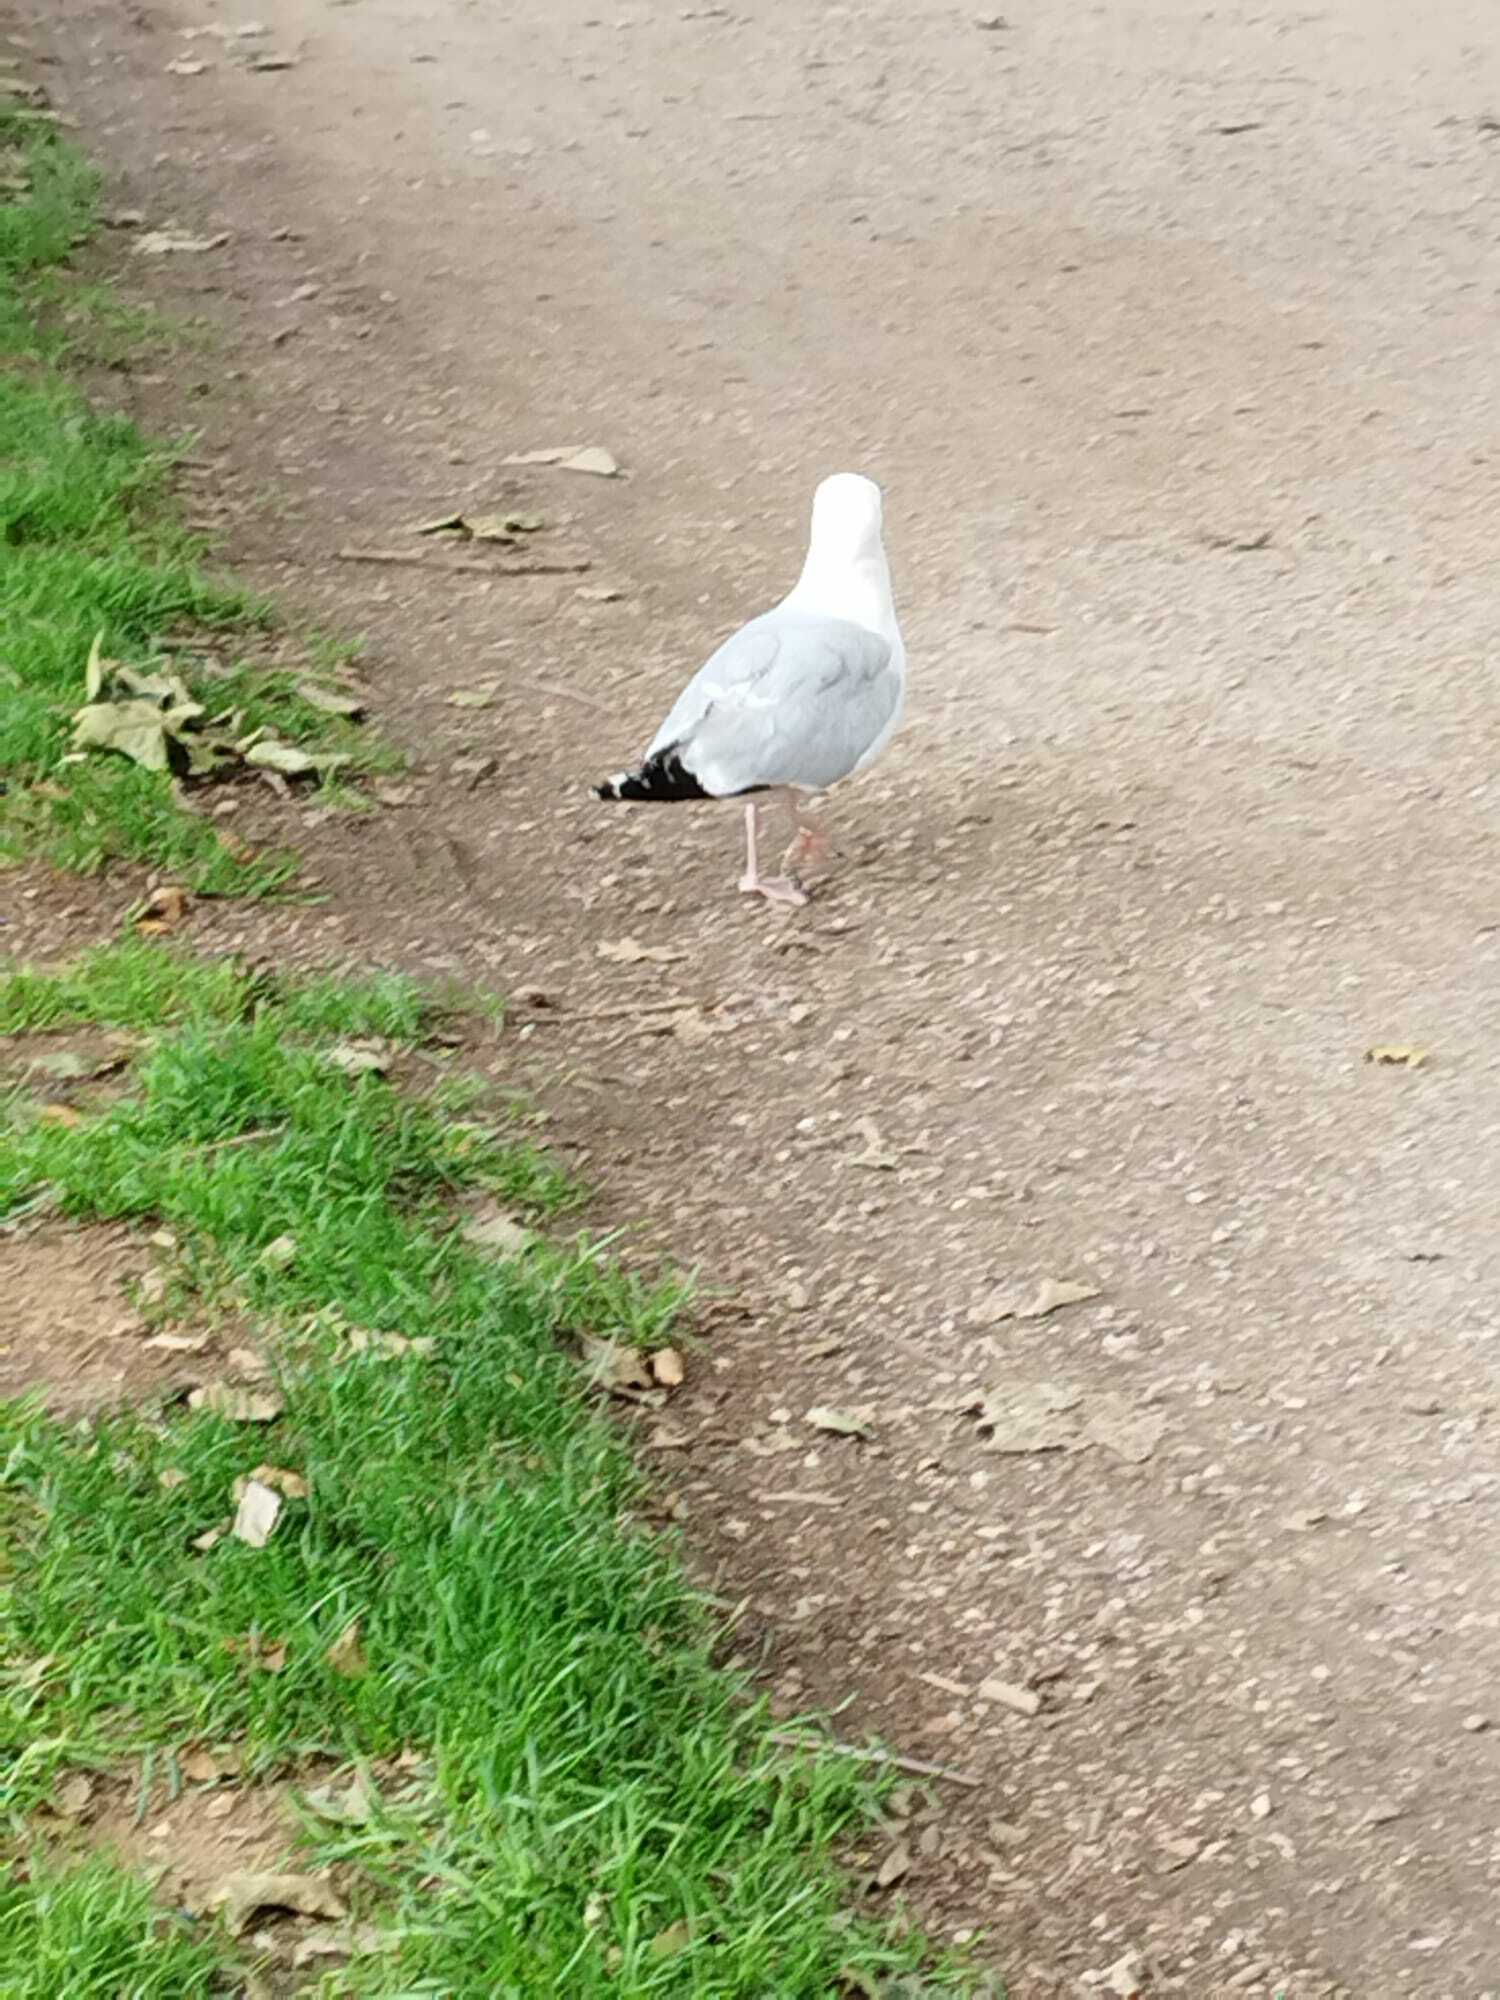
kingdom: Animalia
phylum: Chordata
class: Aves
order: Charadriiformes
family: Laridae
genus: Larus
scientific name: Larus argentatus
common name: Herring gull
